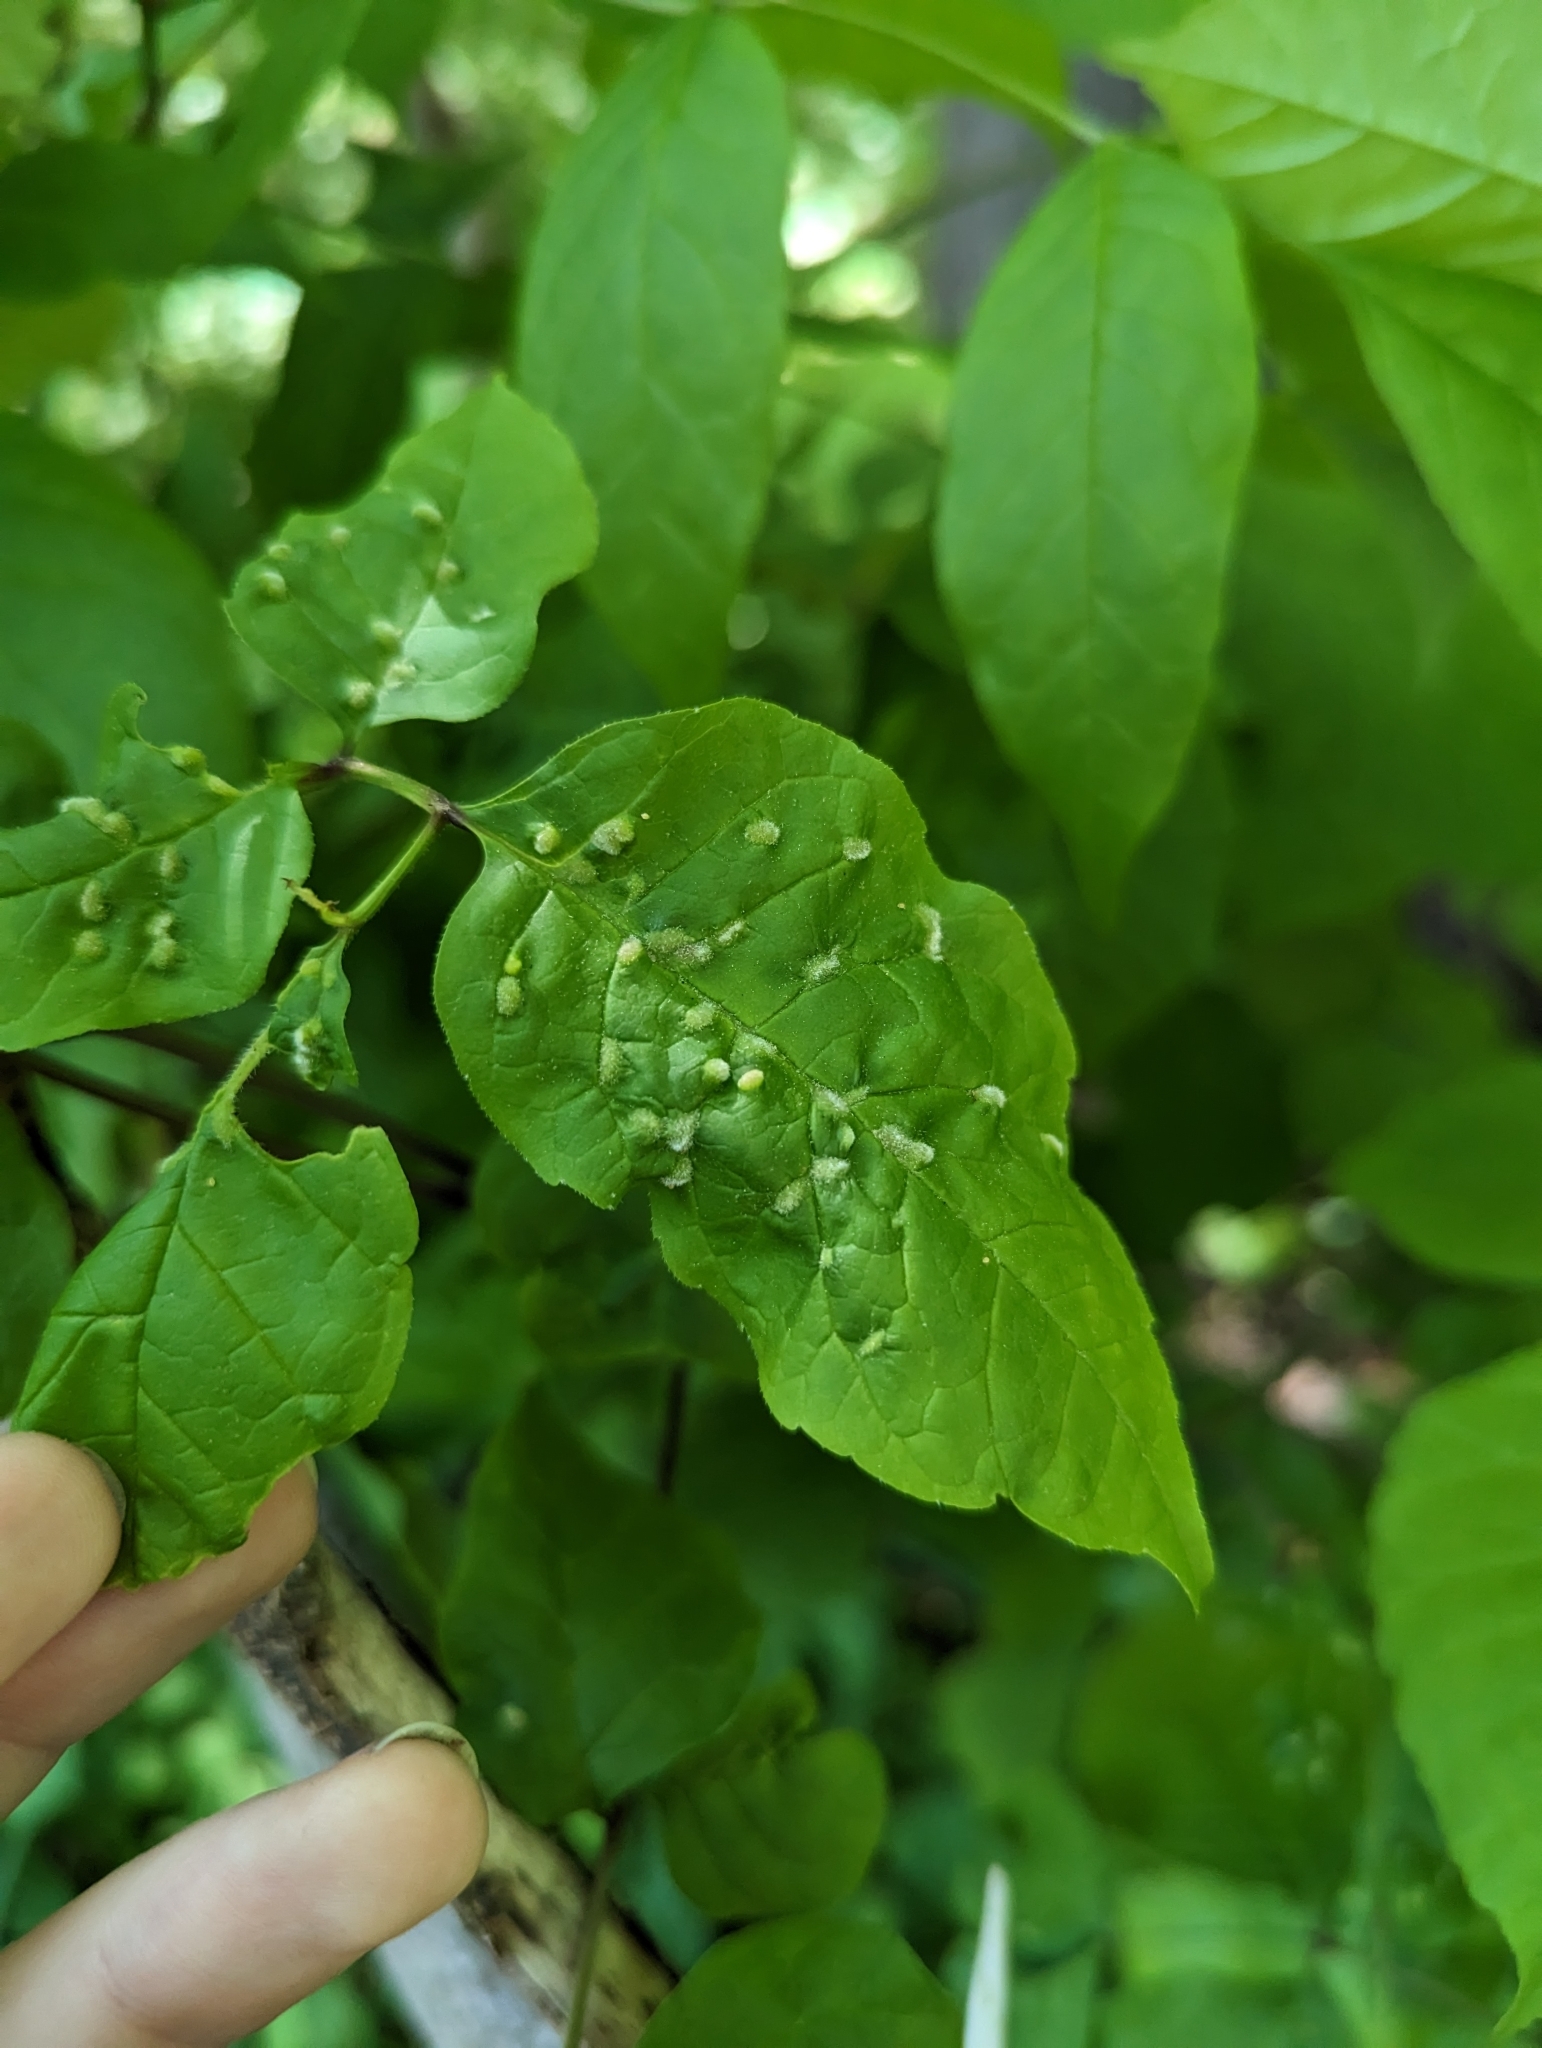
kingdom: Animalia
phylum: Arthropoda
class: Arachnida
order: Trombidiformes
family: Eriophyidae
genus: Aceria
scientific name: Aceria fraxinicola
